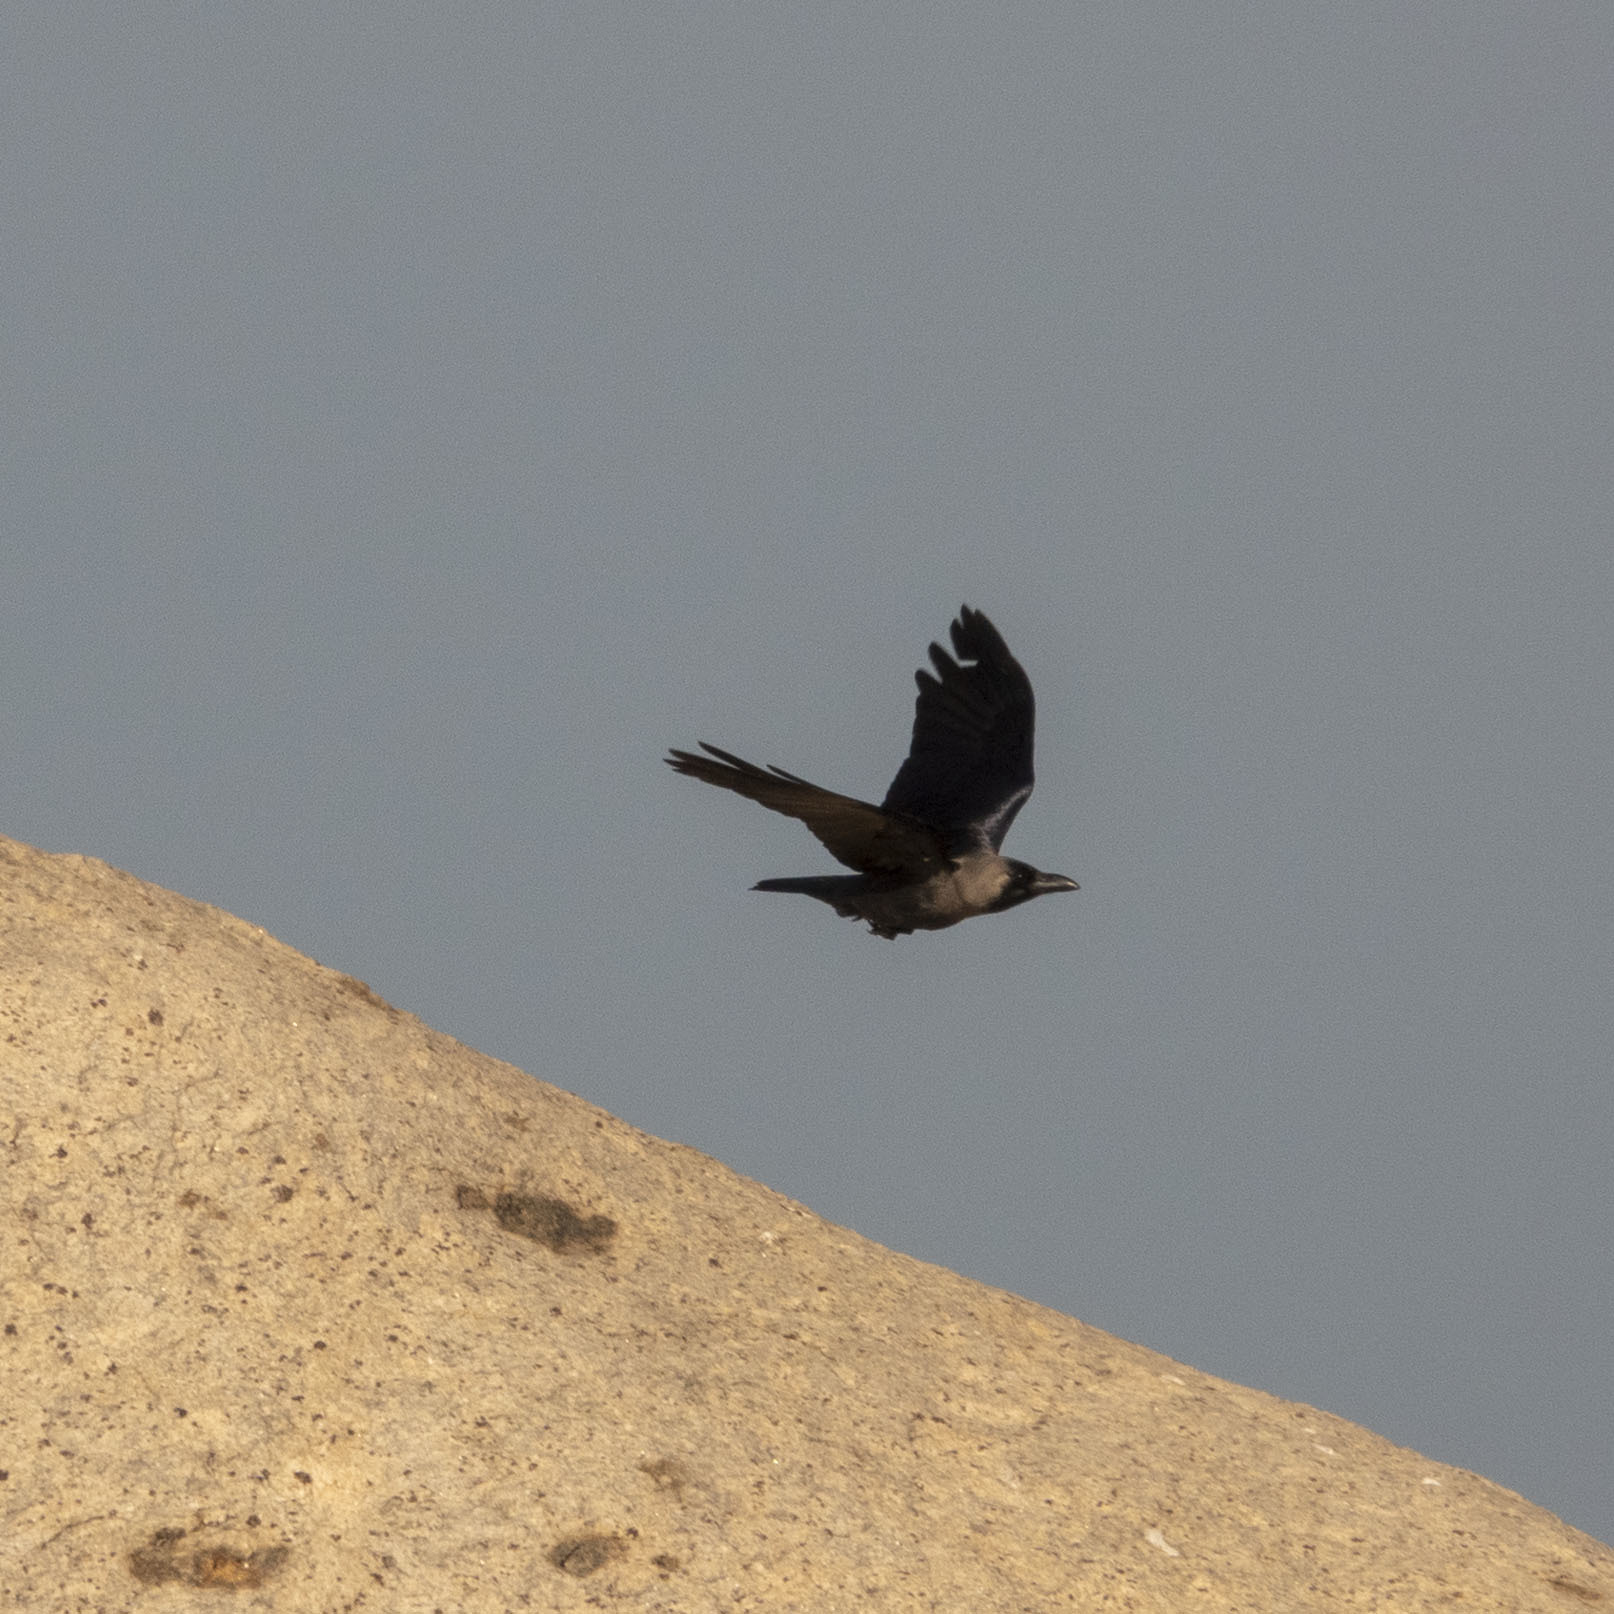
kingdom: Animalia
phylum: Chordata
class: Aves
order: Passeriformes
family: Corvidae
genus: Corvus
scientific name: Corvus splendens
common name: House crow
